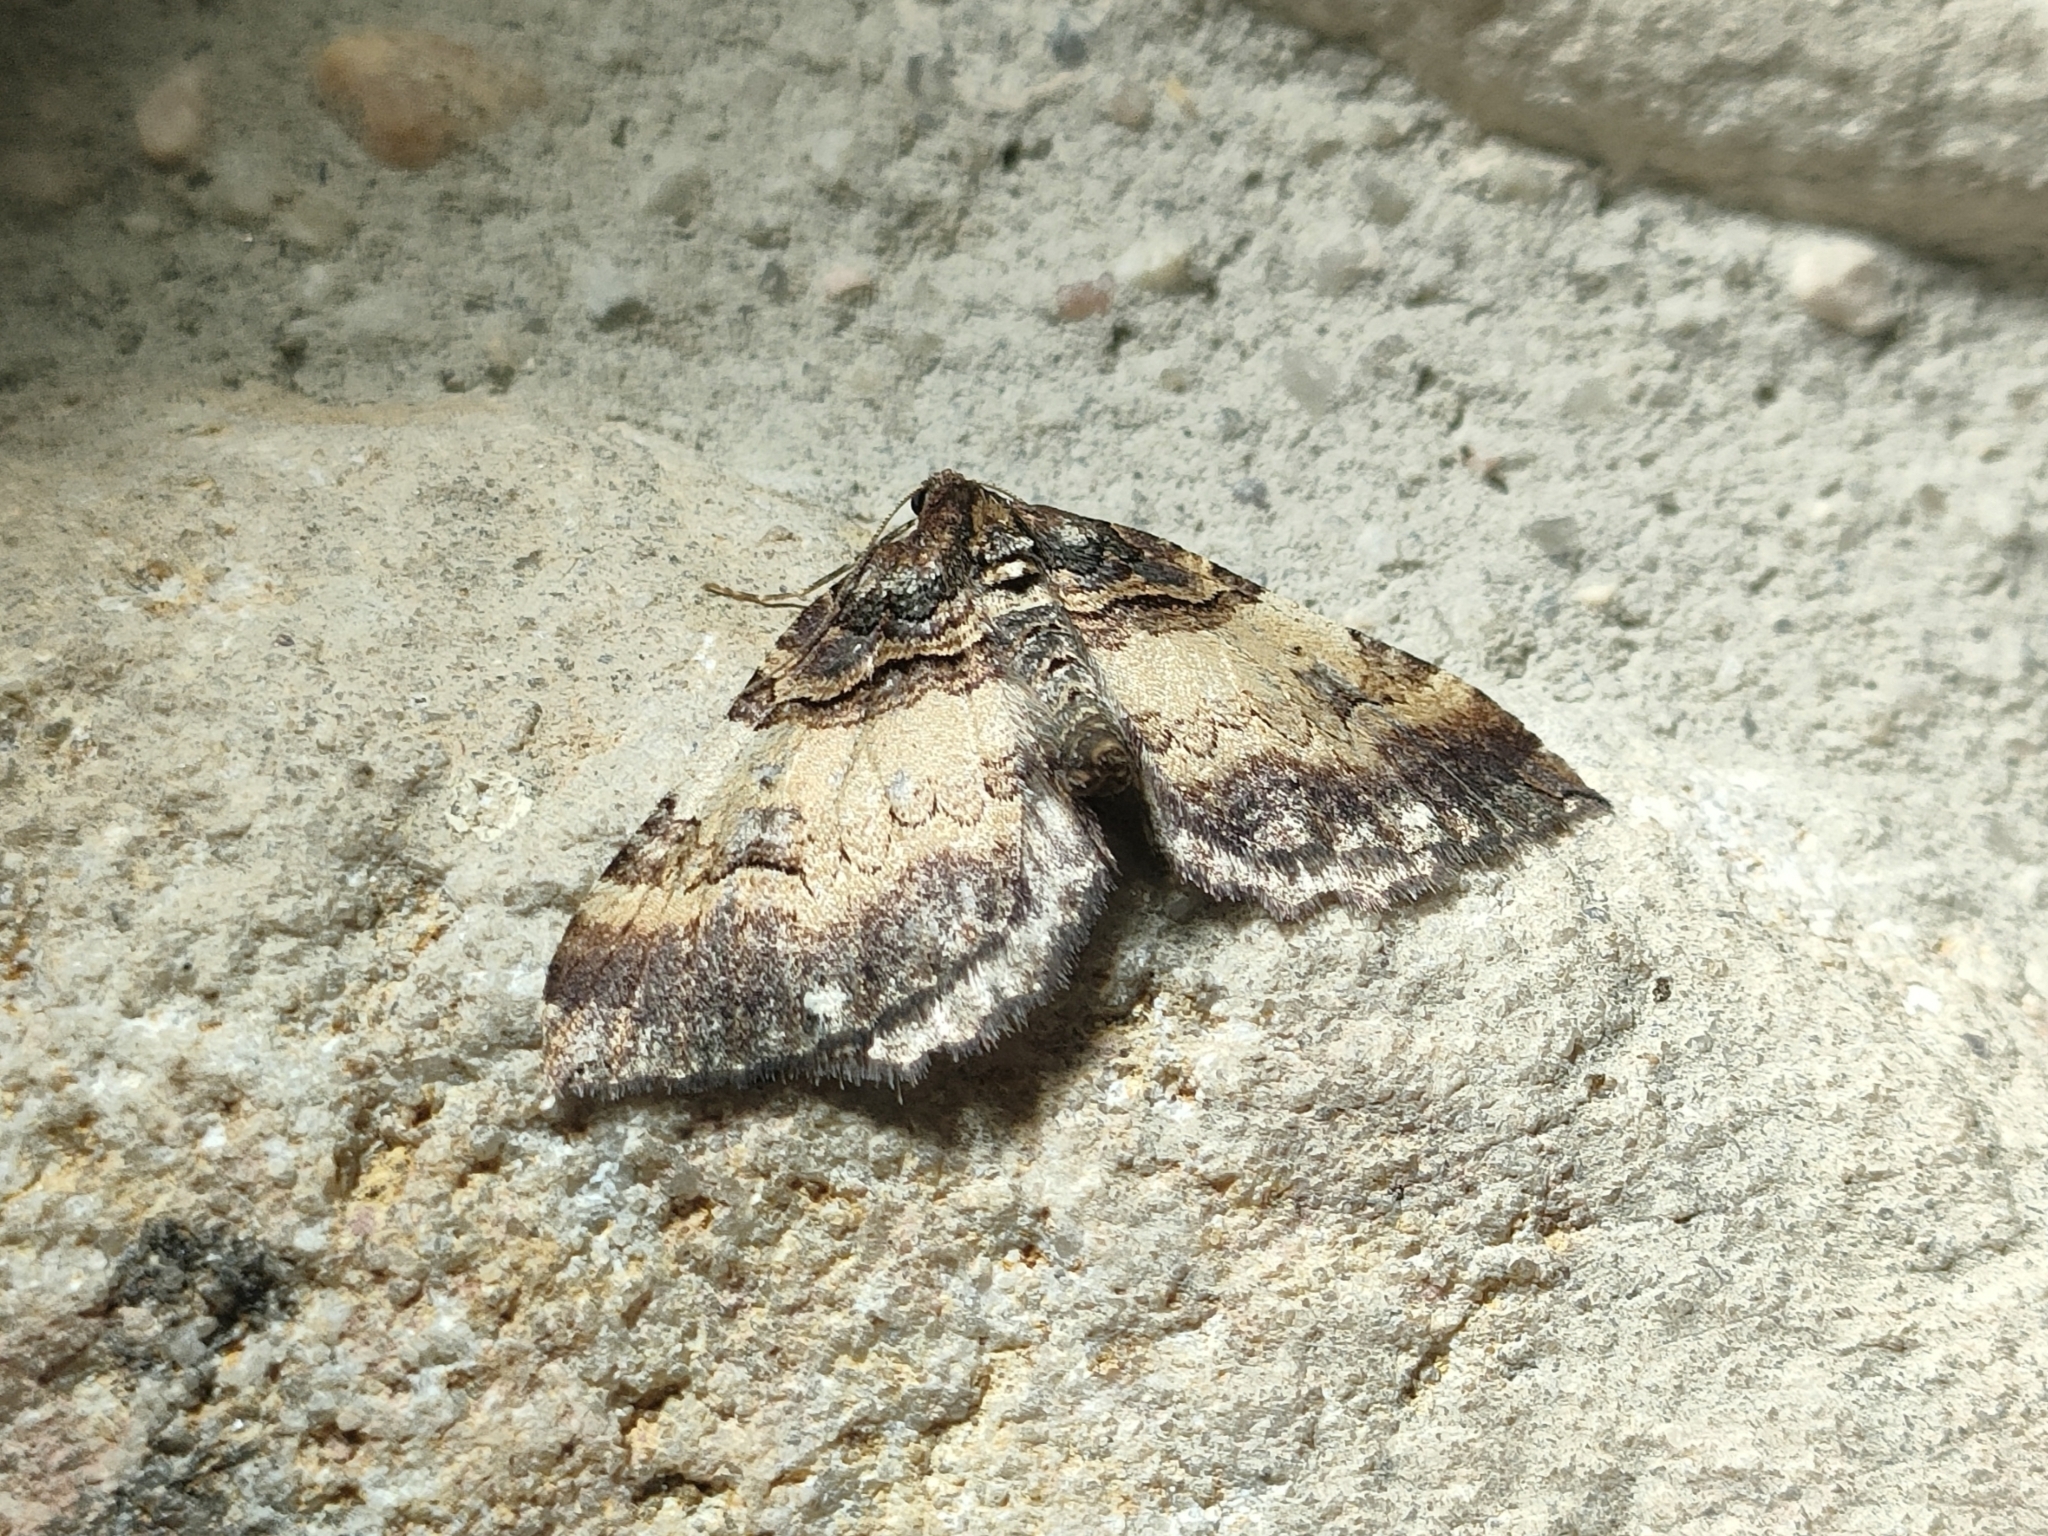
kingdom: Animalia
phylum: Arthropoda
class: Insecta
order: Lepidoptera
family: Geometridae
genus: Anticlea
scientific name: Anticlea badiata
